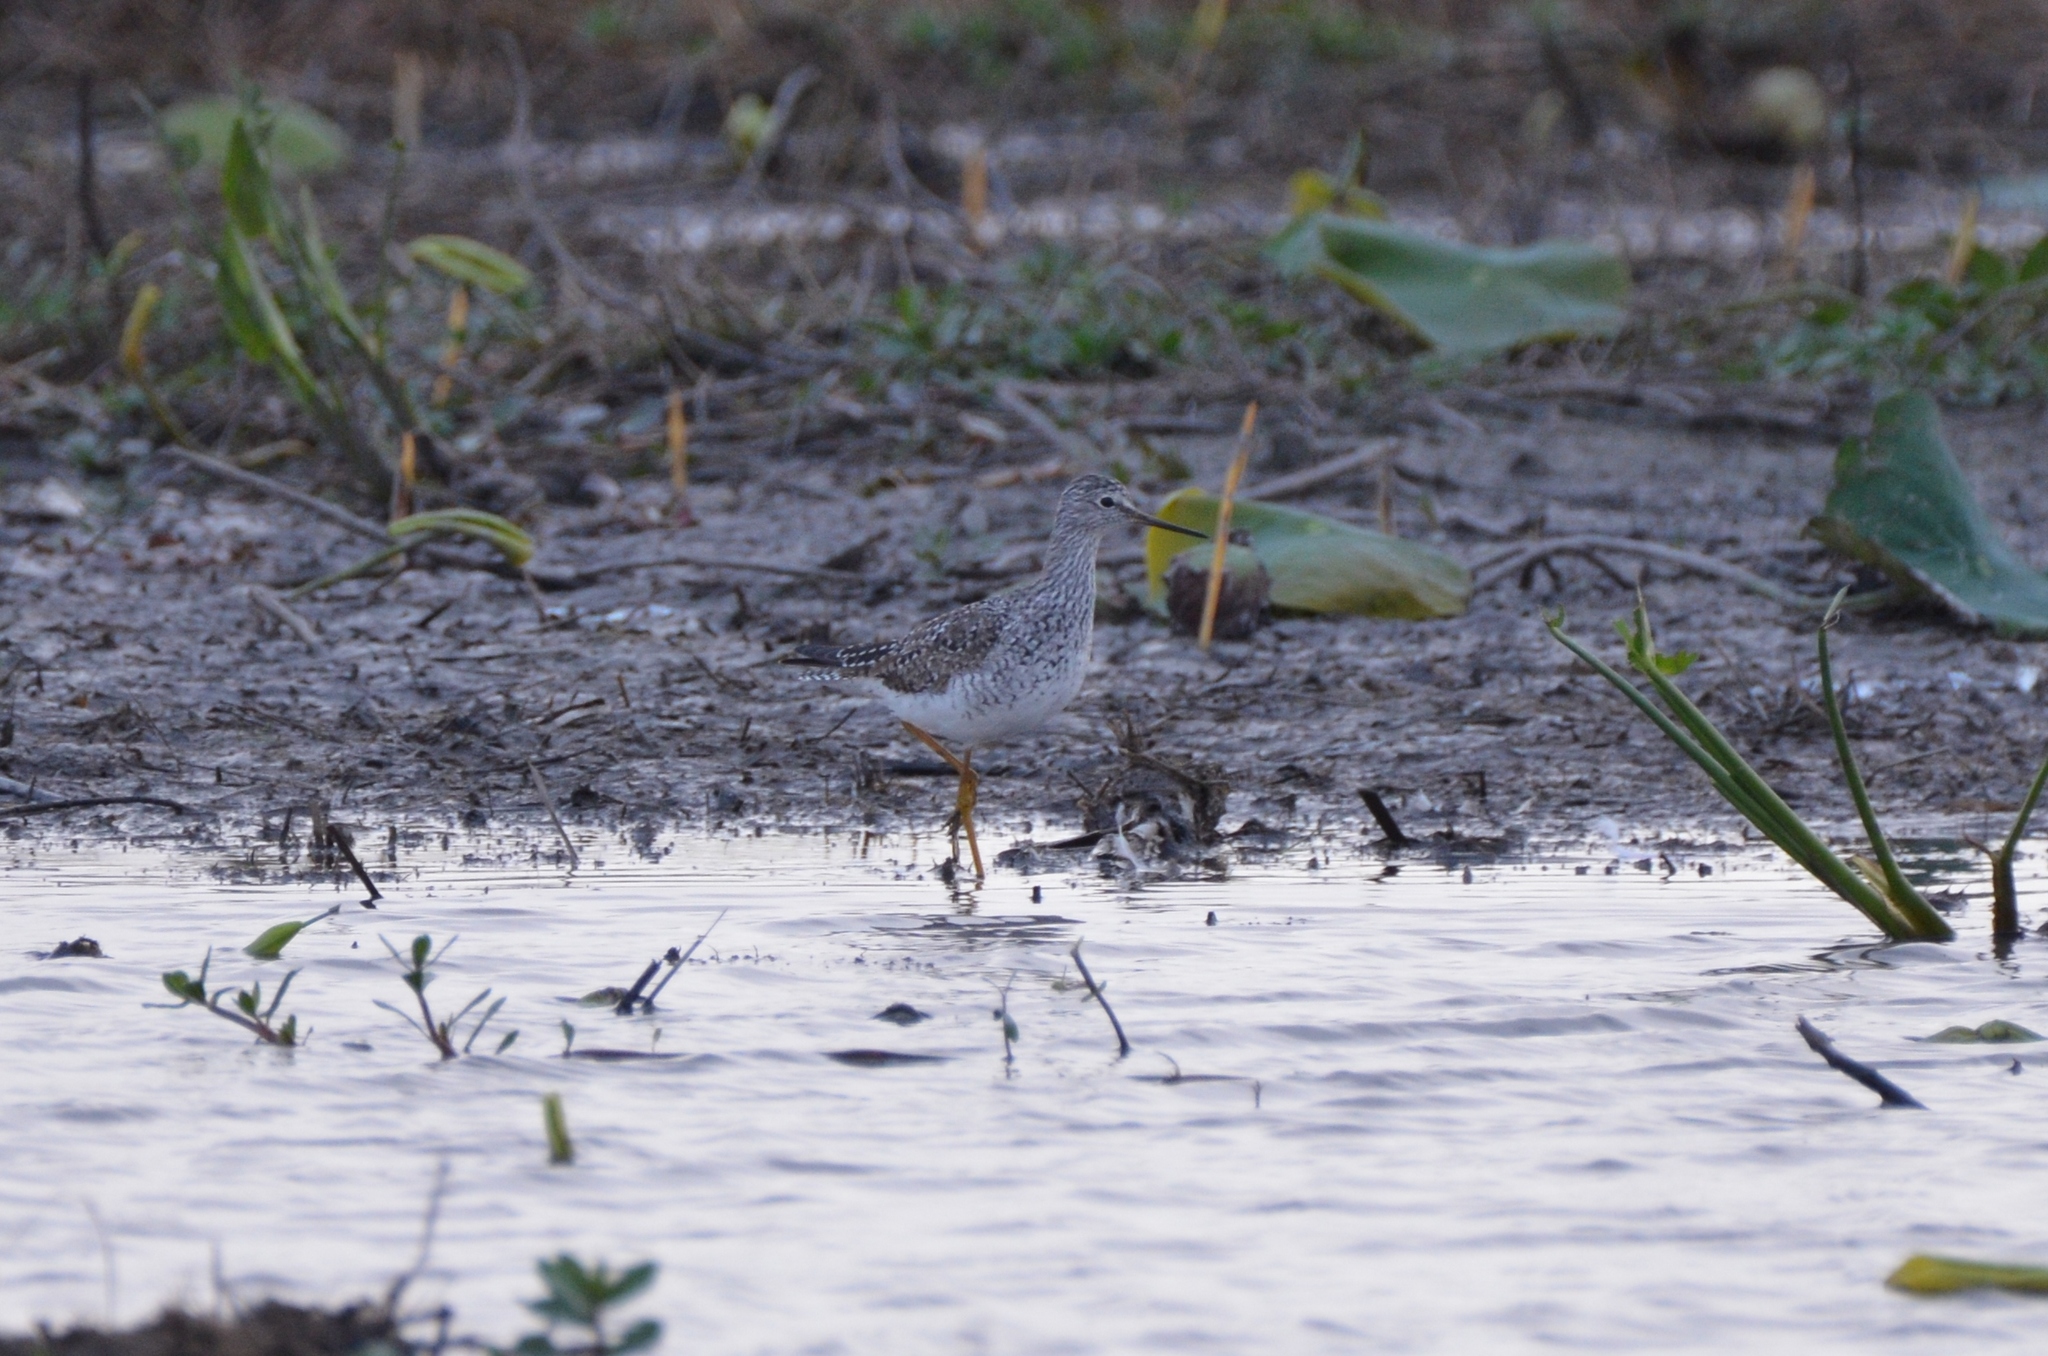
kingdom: Animalia
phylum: Chordata
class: Aves
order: Charadriiformes
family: Scolopacidae
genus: Tringa
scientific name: Tringa flavipes
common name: Lesser yellowlegs
